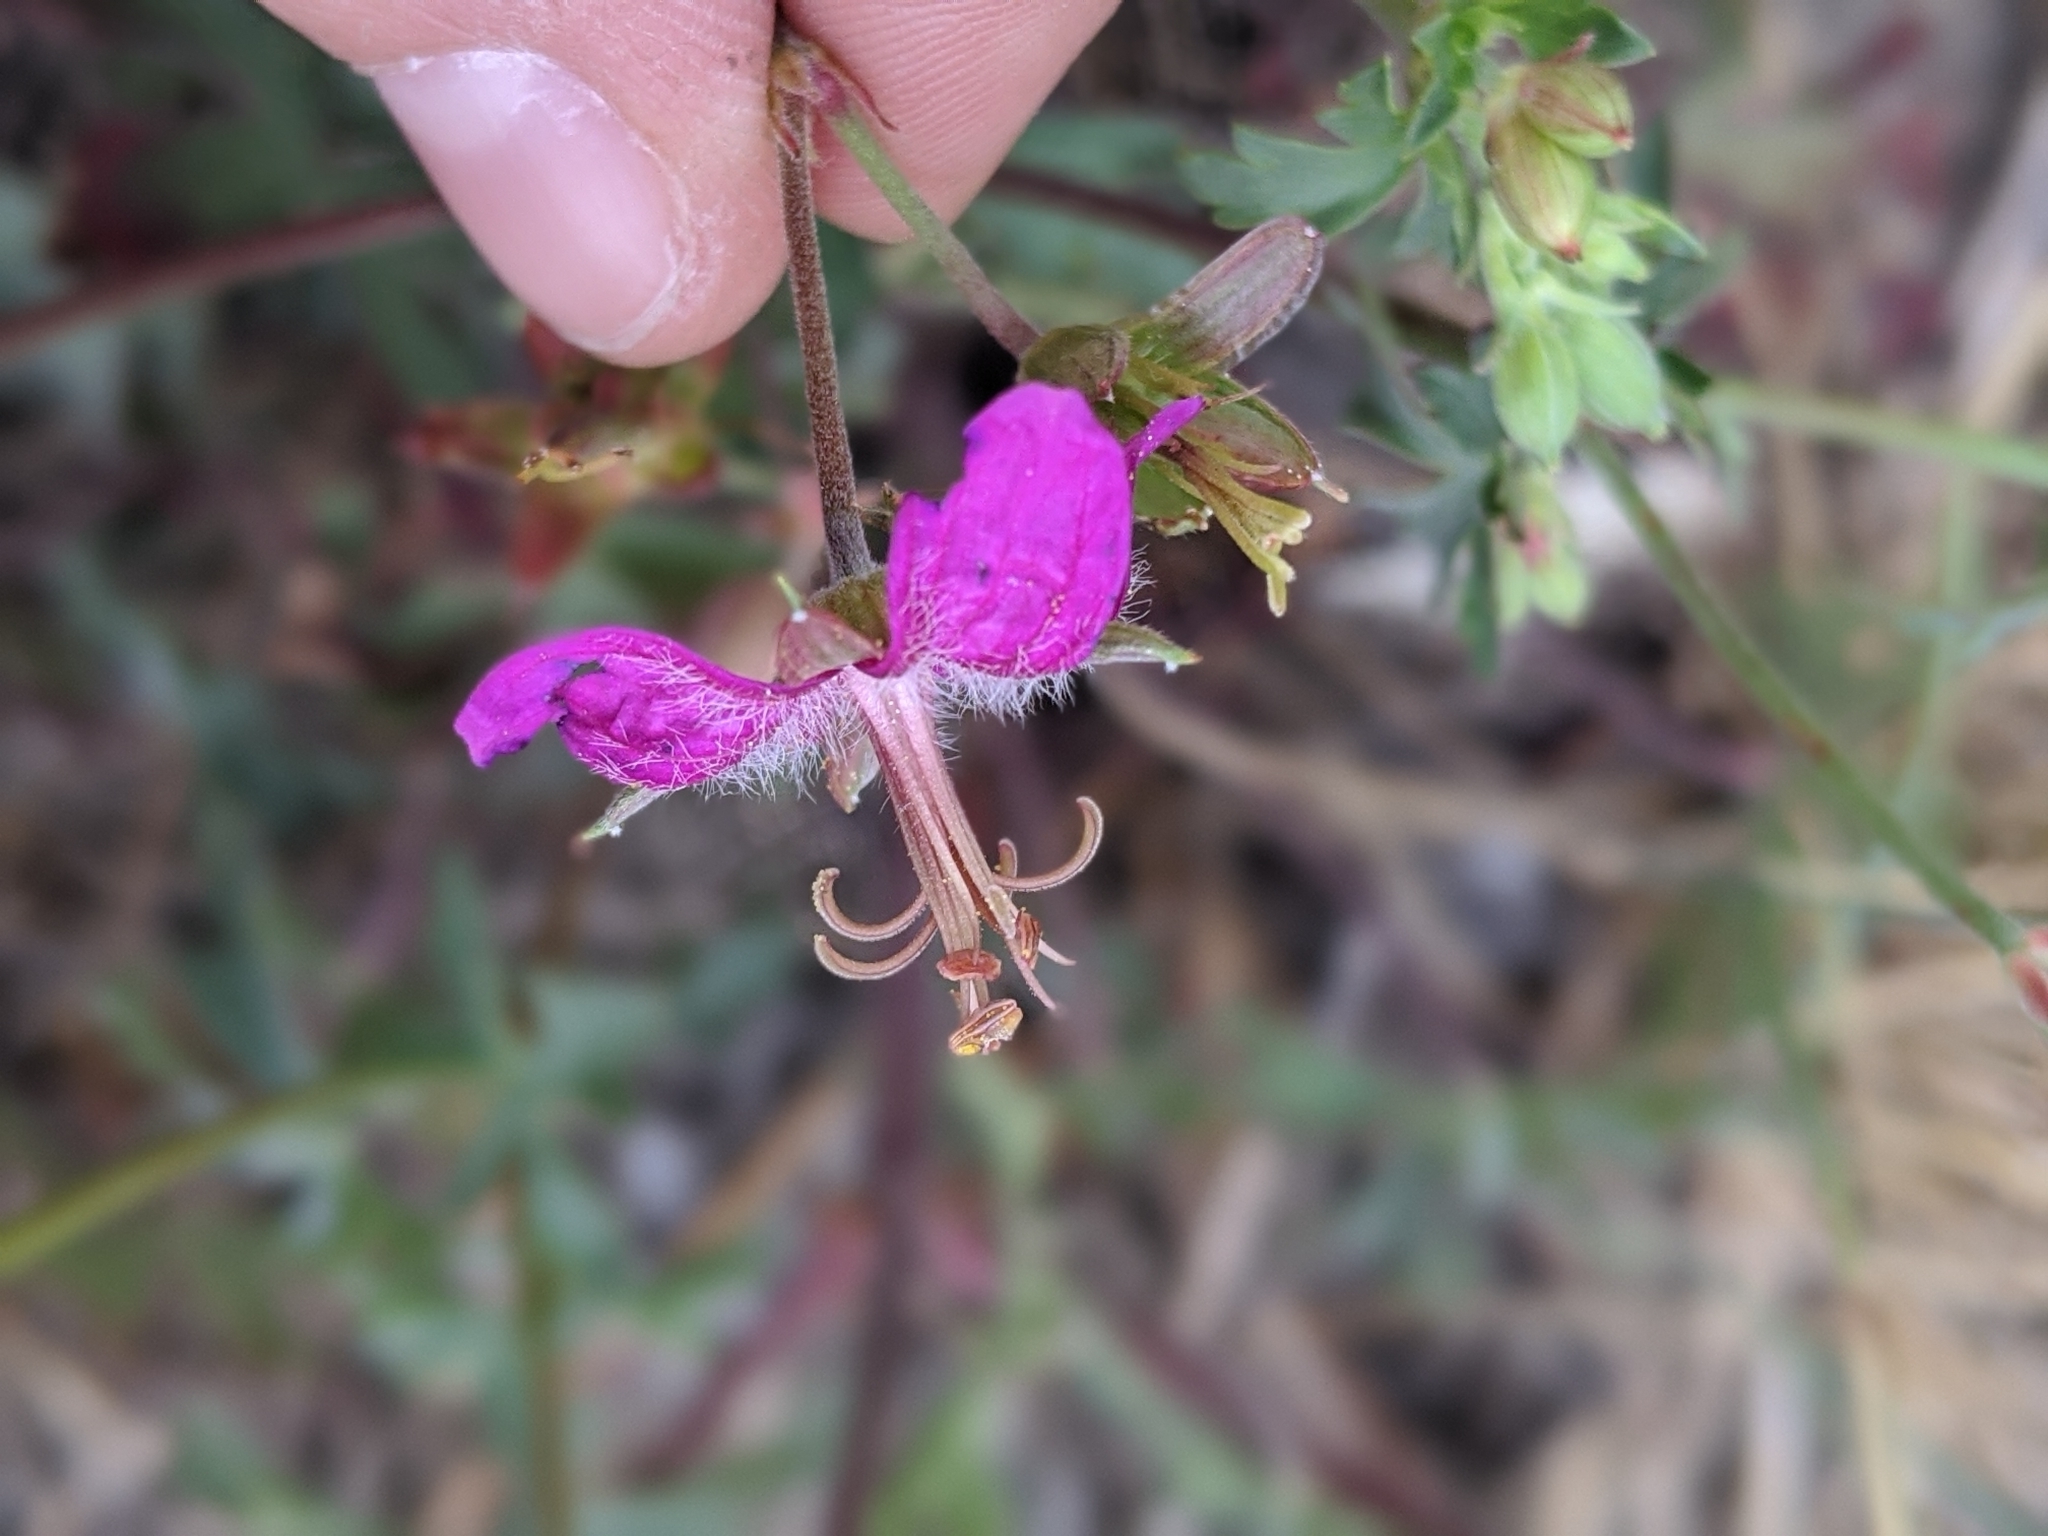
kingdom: Plantae
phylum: Tracheophyta
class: Magnoliopsida
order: Geraniales
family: Geraniaceae
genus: Geranium
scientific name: Geranium caespitosum
